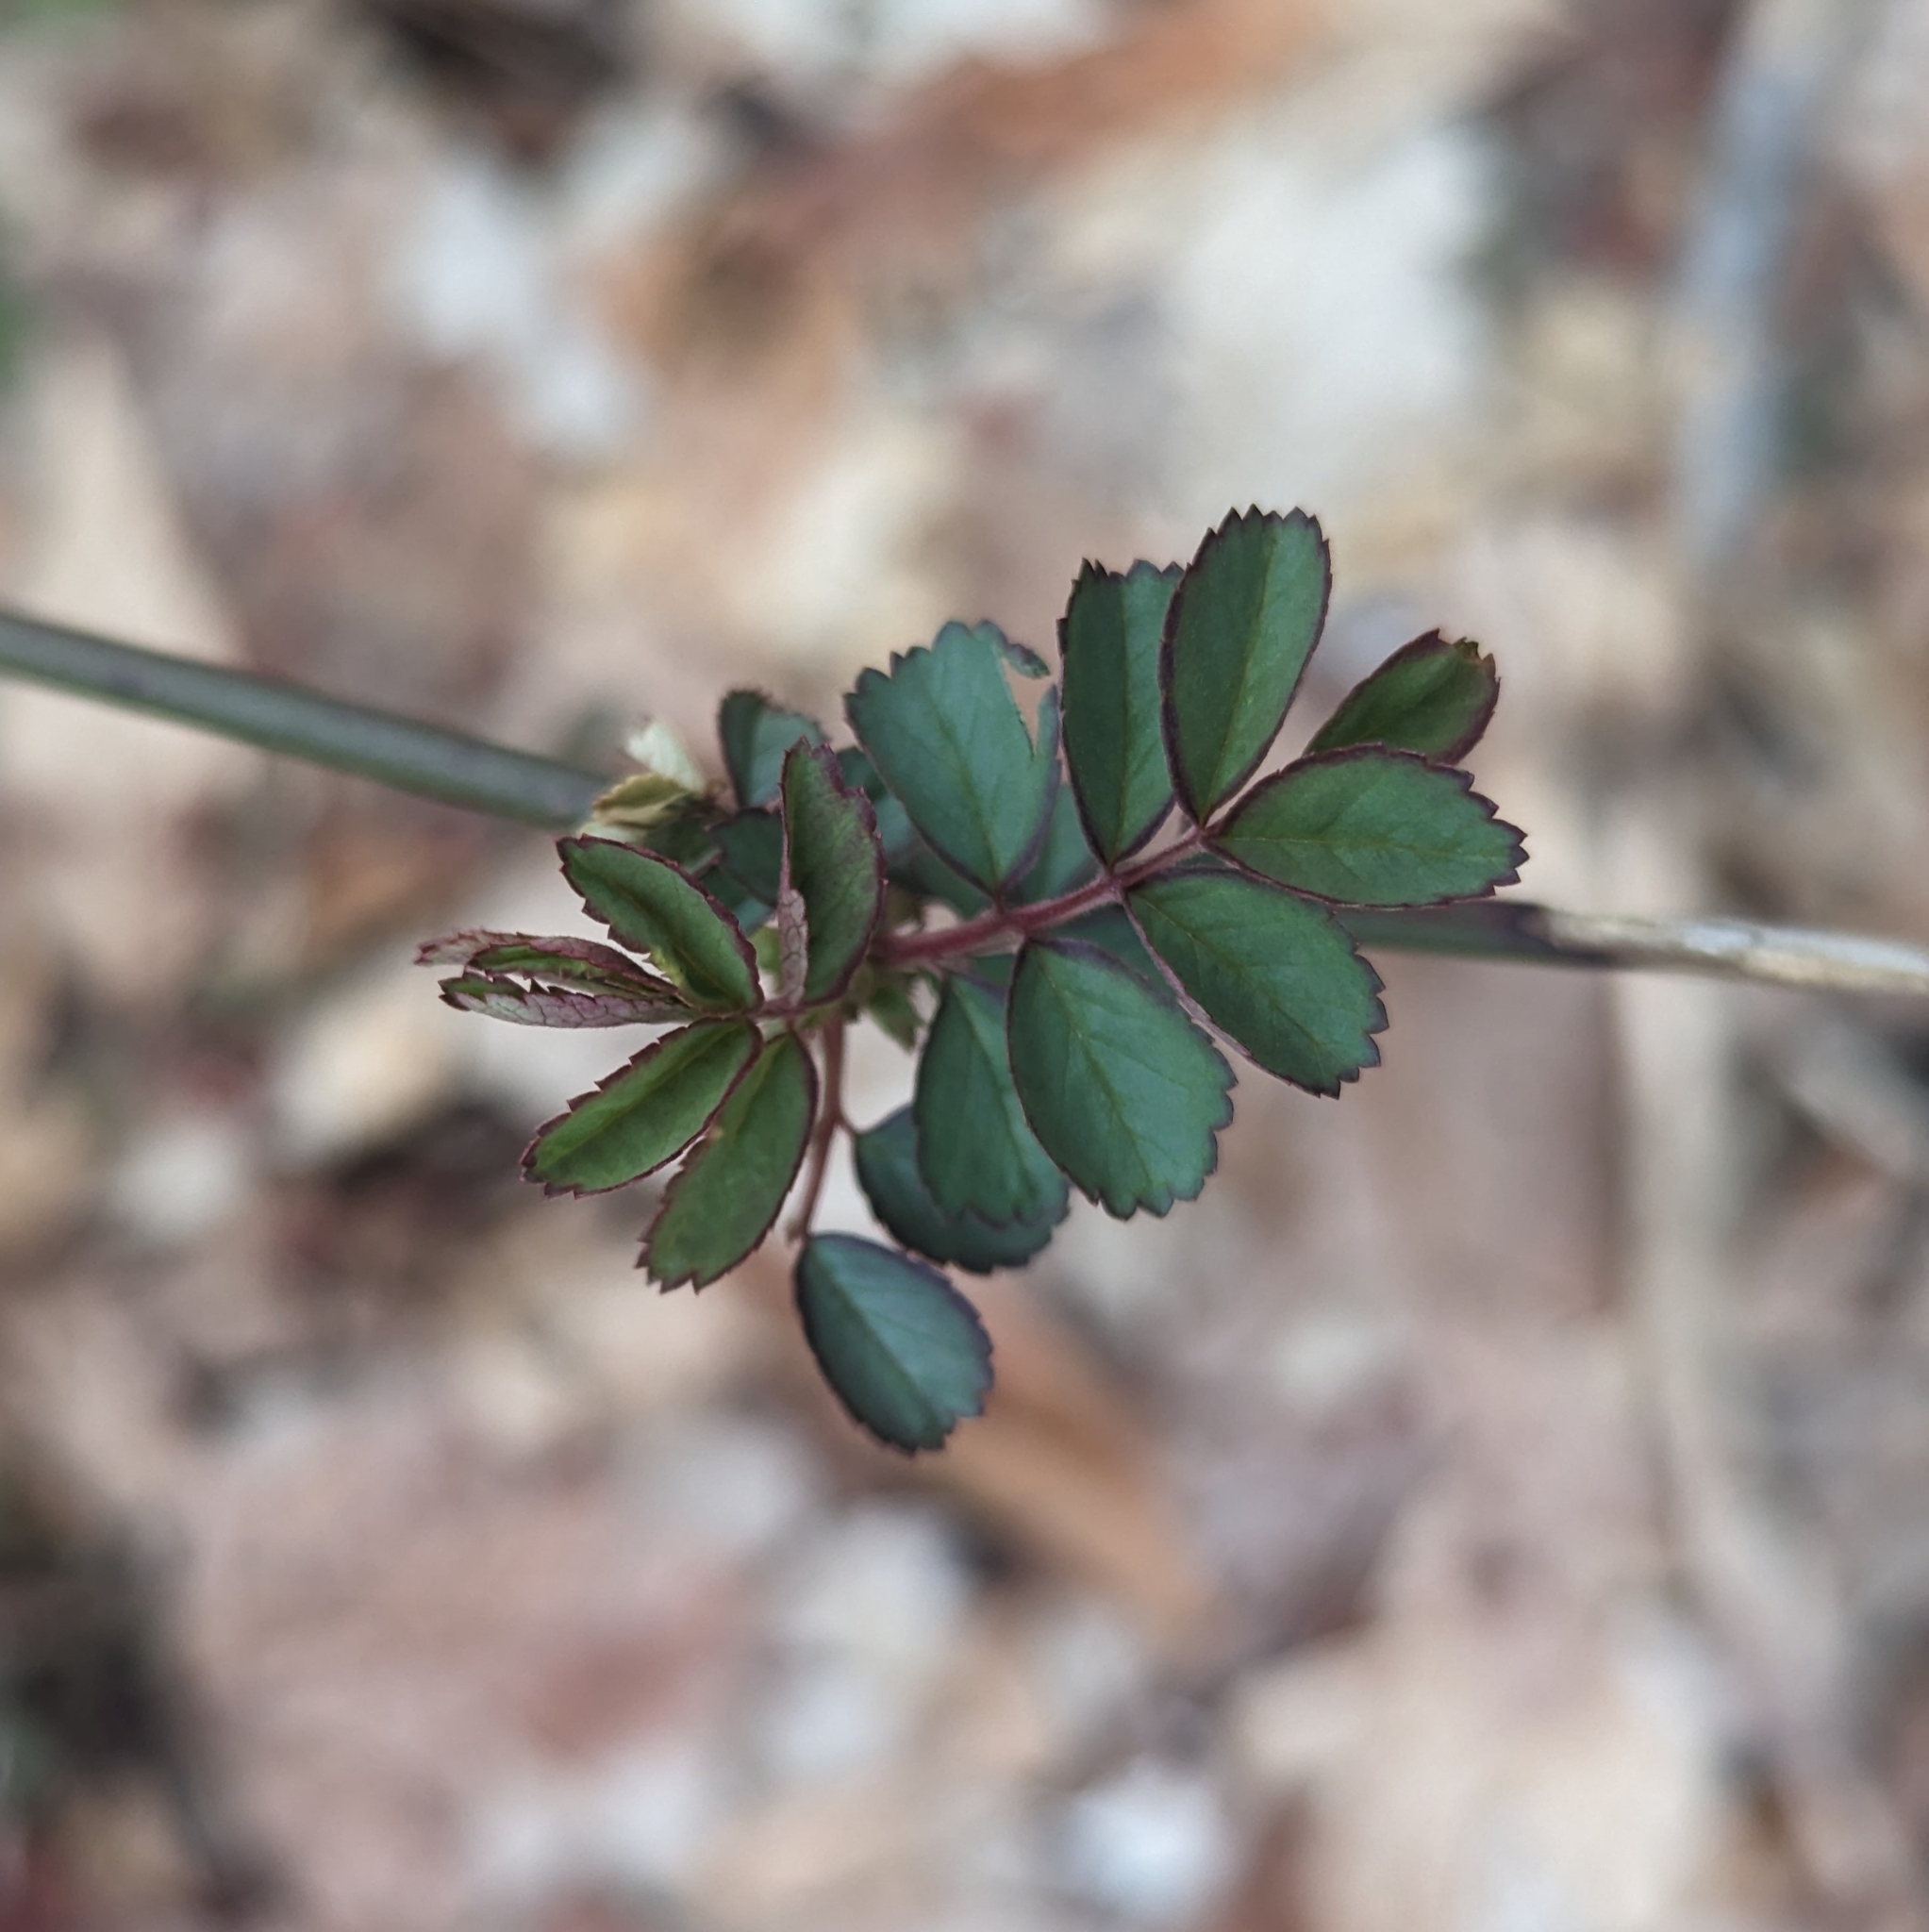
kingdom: Plantae
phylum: Tracheophyta
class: Magnoliopsida
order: Rosales
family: Rosaceae
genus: Rosa
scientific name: Rosa multiflora
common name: Multiflora rose
